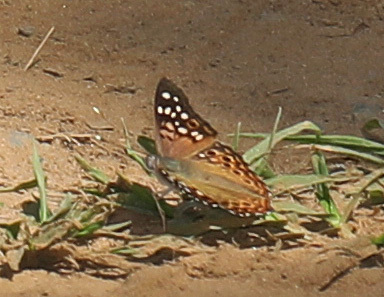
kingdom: Animalia
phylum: Arthropoda
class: Insecta
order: Lepidoptera
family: Nymphalidae
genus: Asterocampa
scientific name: Asterocampa celtis
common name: Hackberry emperor
